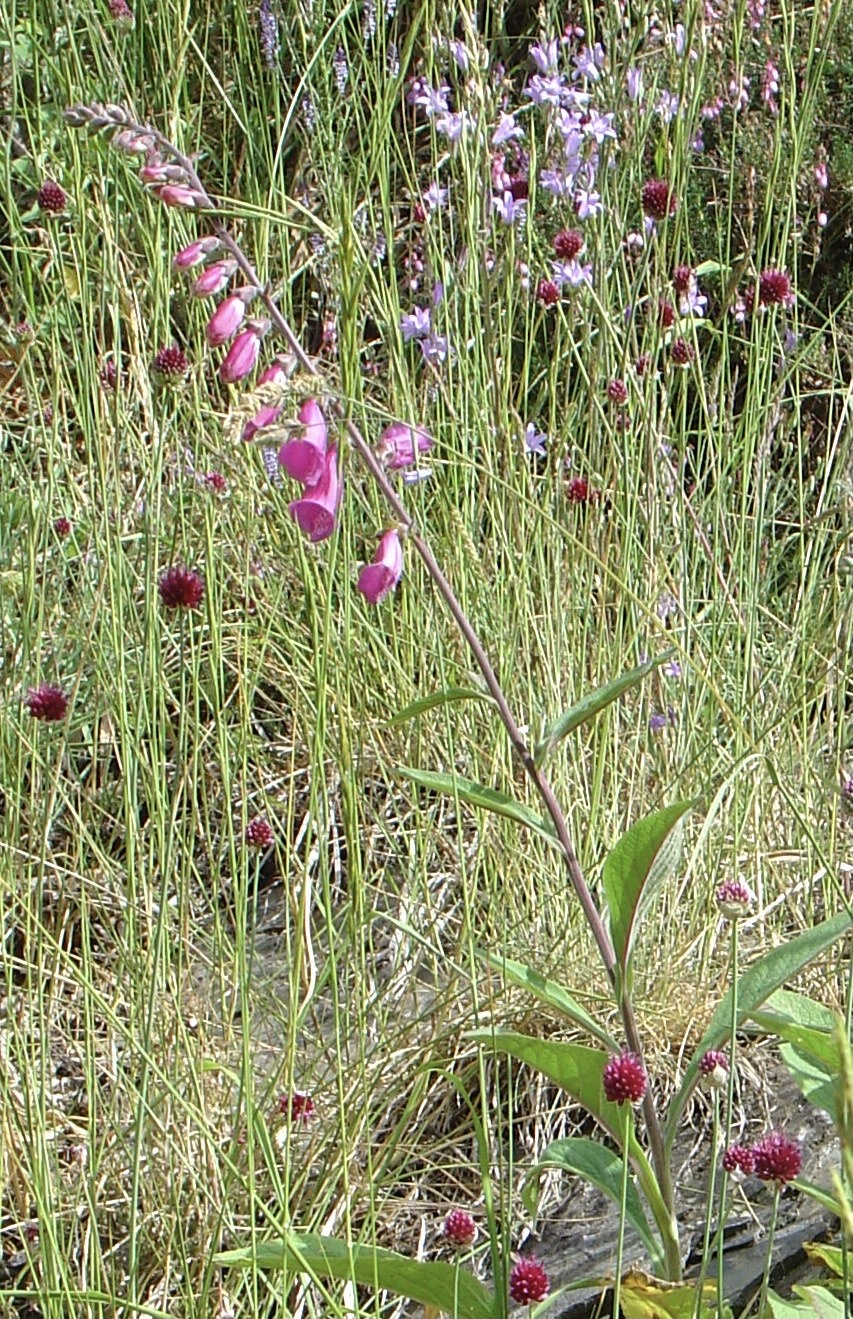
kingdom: Plantae
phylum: Tracheophyta
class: Magnoliopsida
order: Lamiales
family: Plantaginaceae
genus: Digitalis
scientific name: Digitalis purpurea
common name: Foxglove
